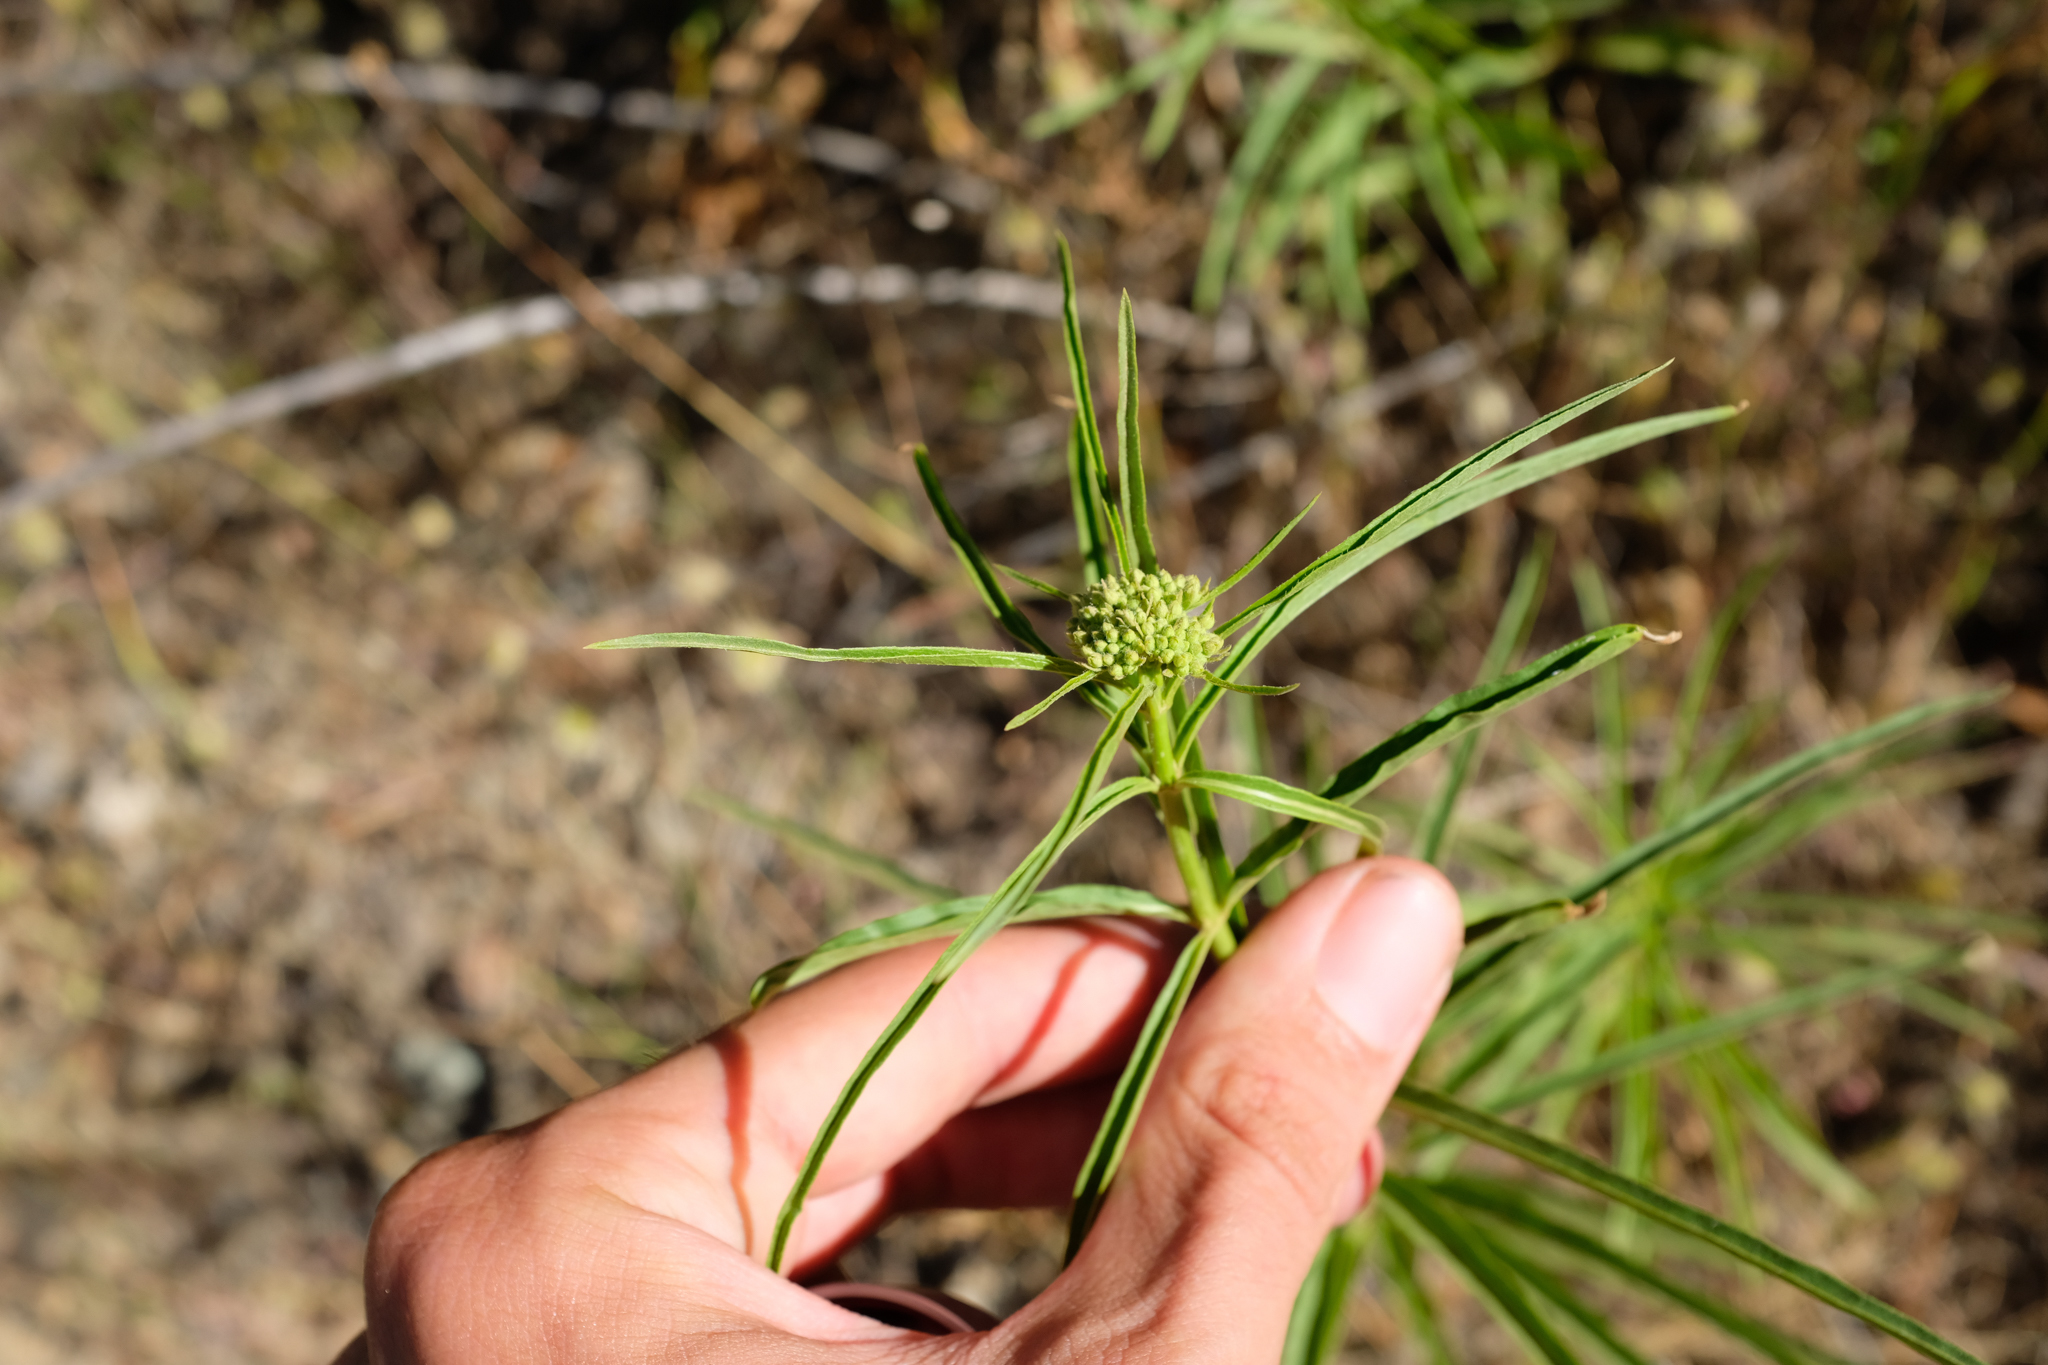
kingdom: Plantae
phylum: Tracheophyta
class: Magnoliopsida
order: Gentianales
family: Apocynaceae
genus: Asclepias
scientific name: Asclepias fascicularis
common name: Mexican milkweed
